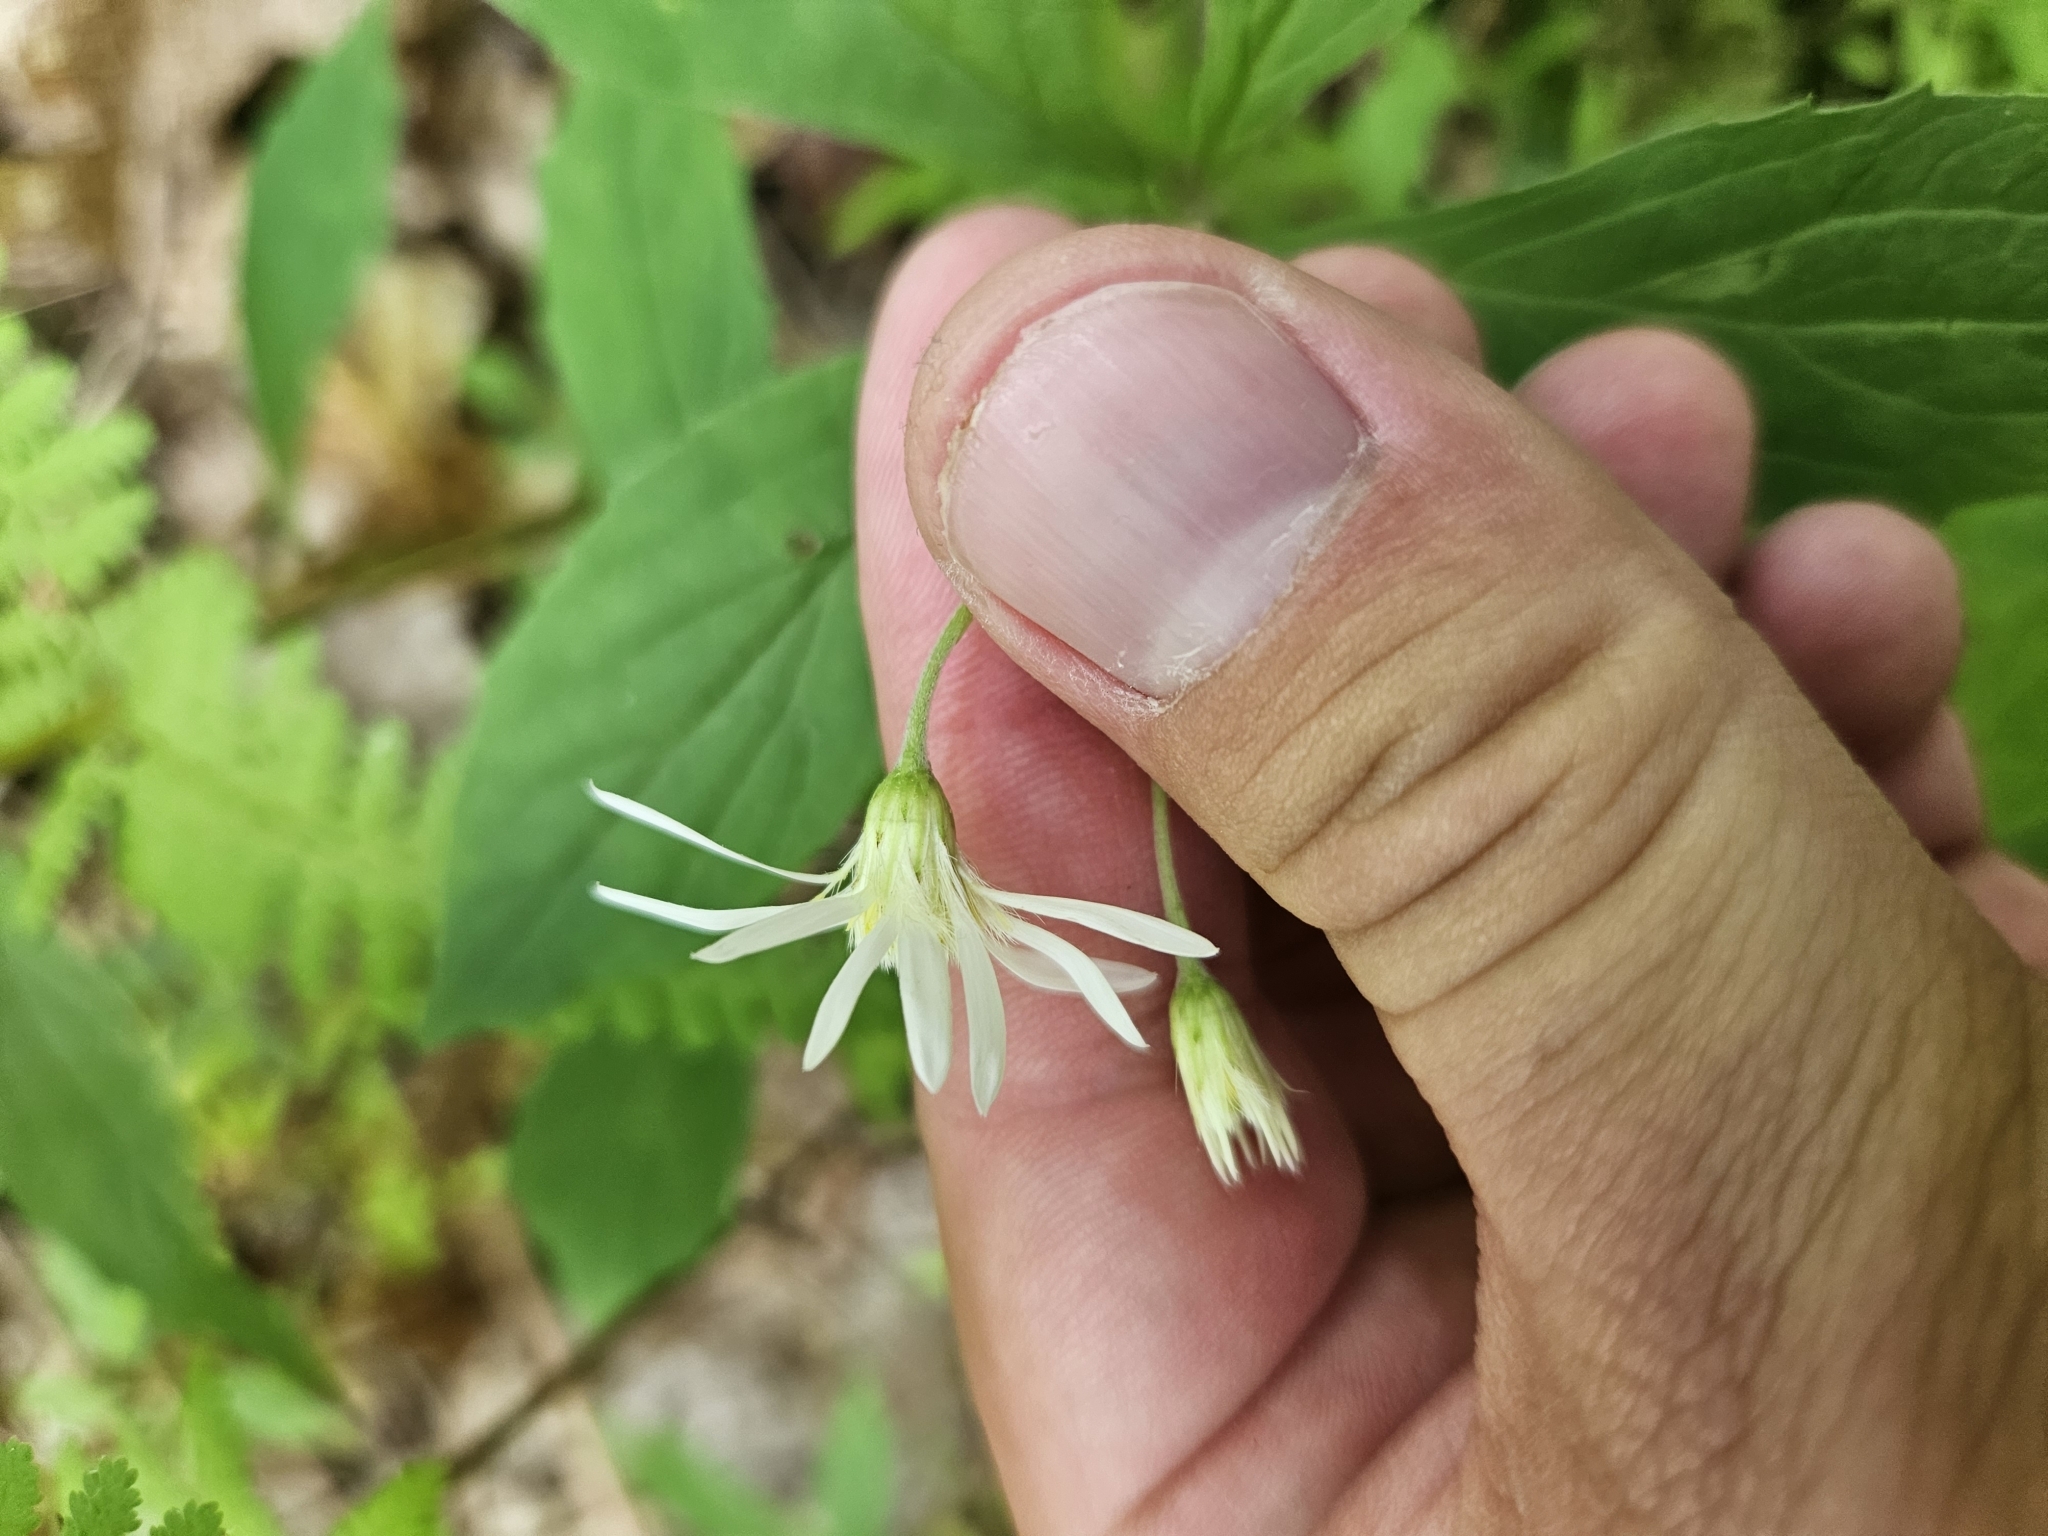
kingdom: Plantae
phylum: Tracheophyta
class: Magnoliopsida
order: Asterales
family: Asteraceae
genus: Oclemena
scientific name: Oclemena acuminata
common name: Mountain aster
